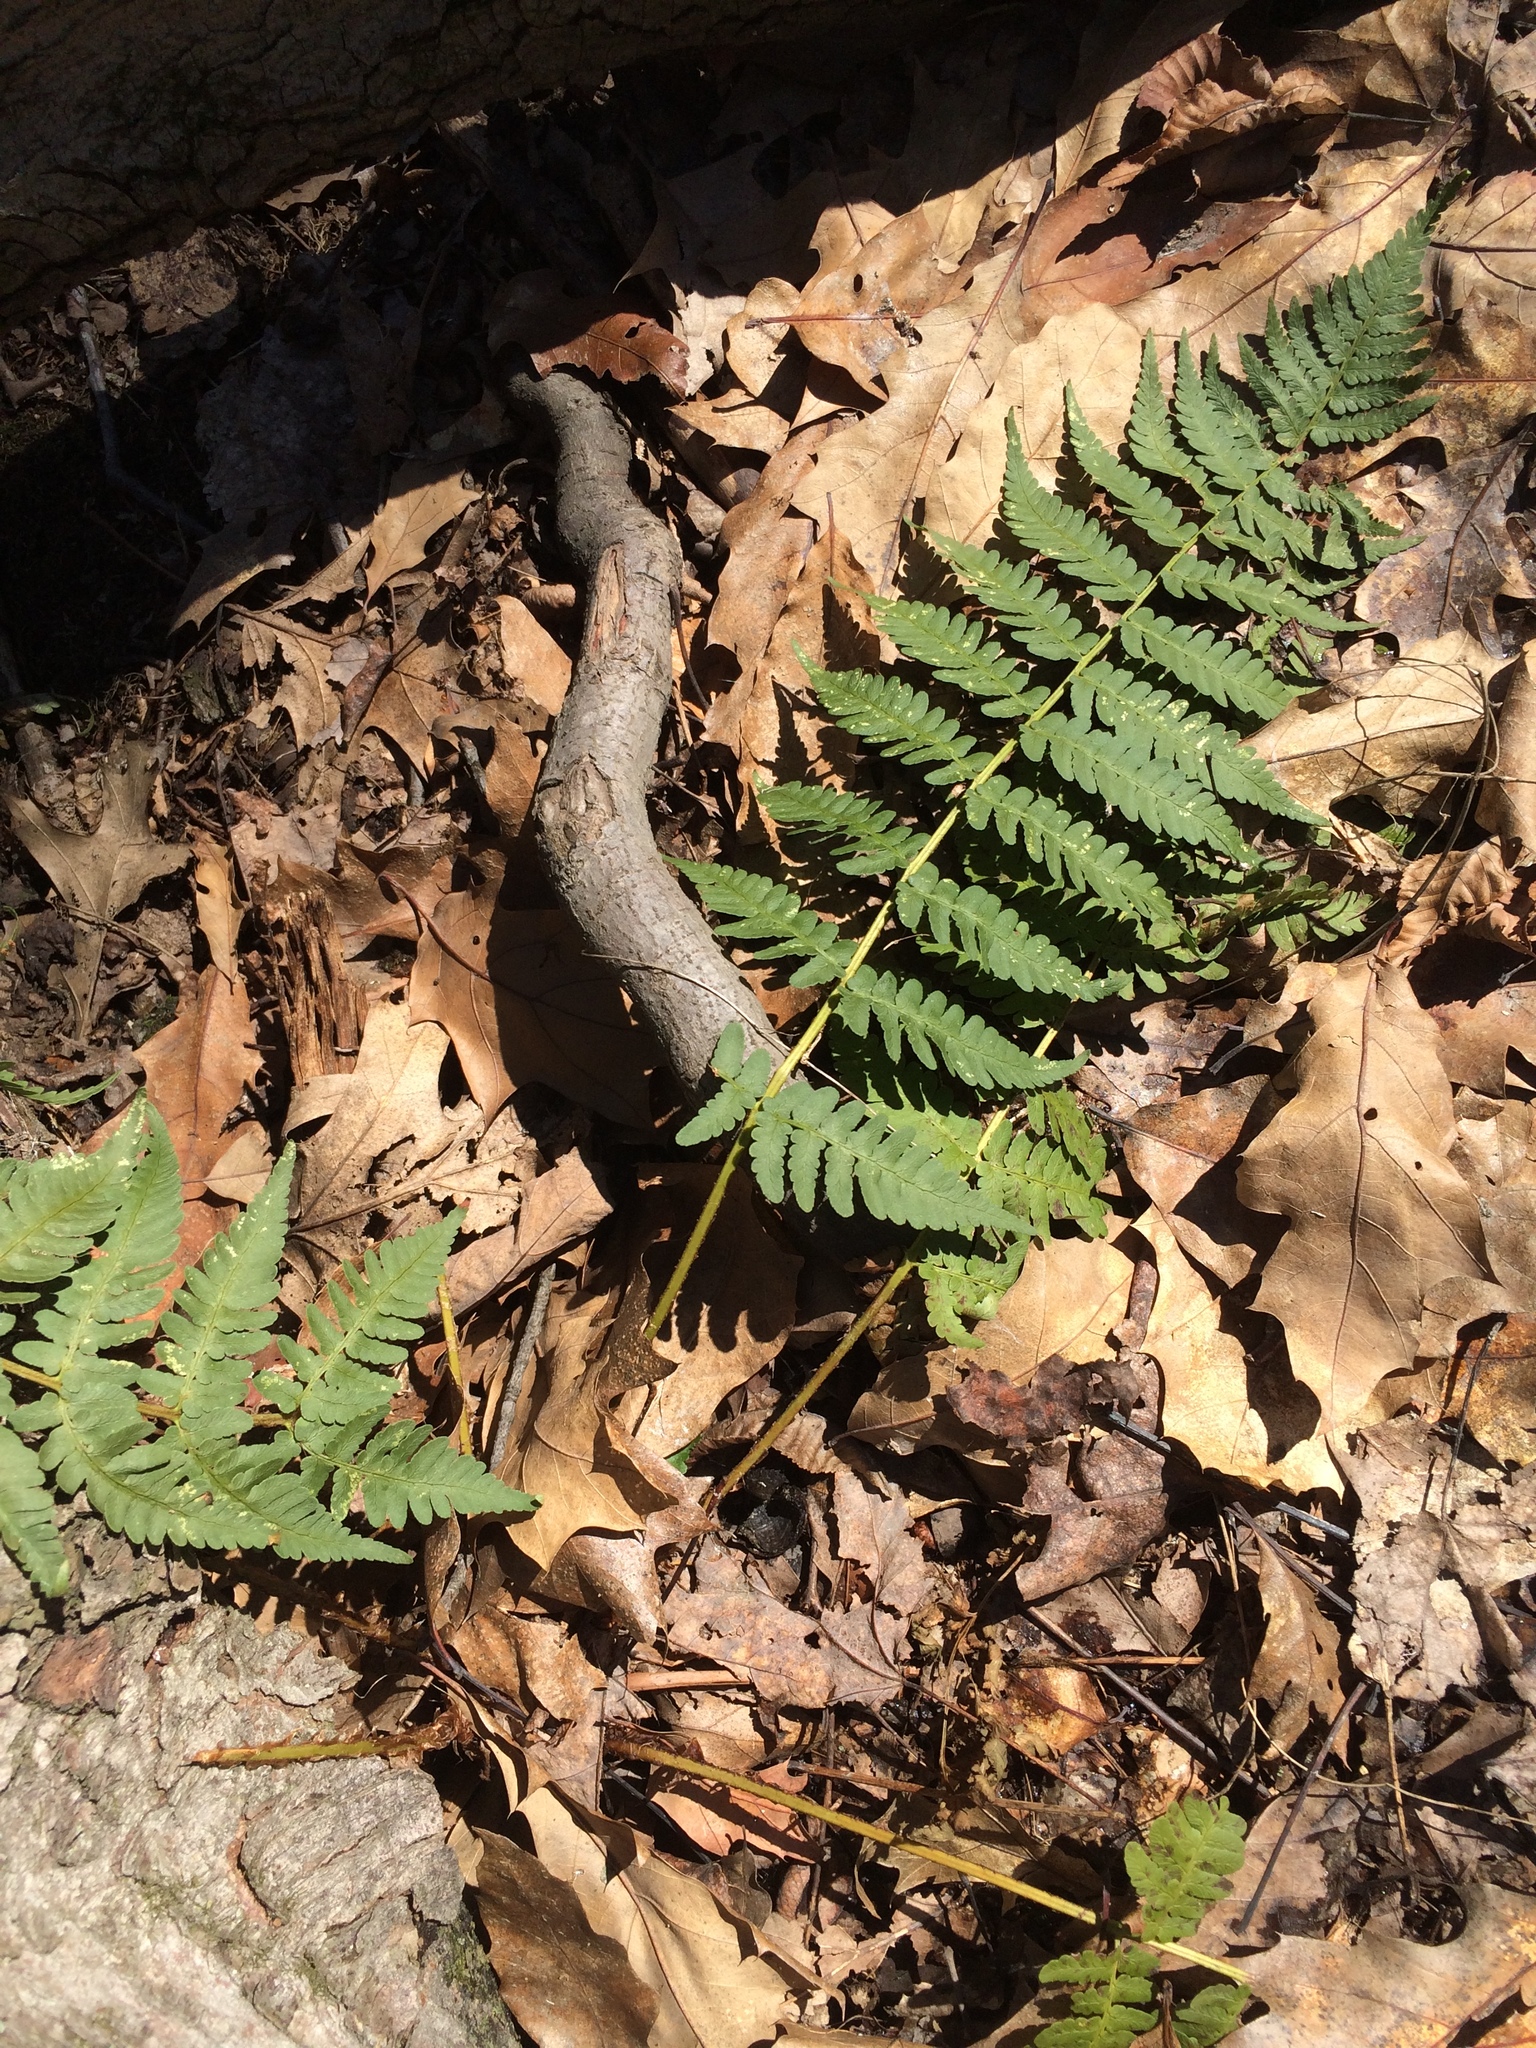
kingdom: Plantae
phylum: Tracheophyta
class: Polypodiopsida
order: Polypodiales
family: Dryopteridaceae
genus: Dryopteris
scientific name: Dryopteris marginalis
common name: Marginal wood fern
